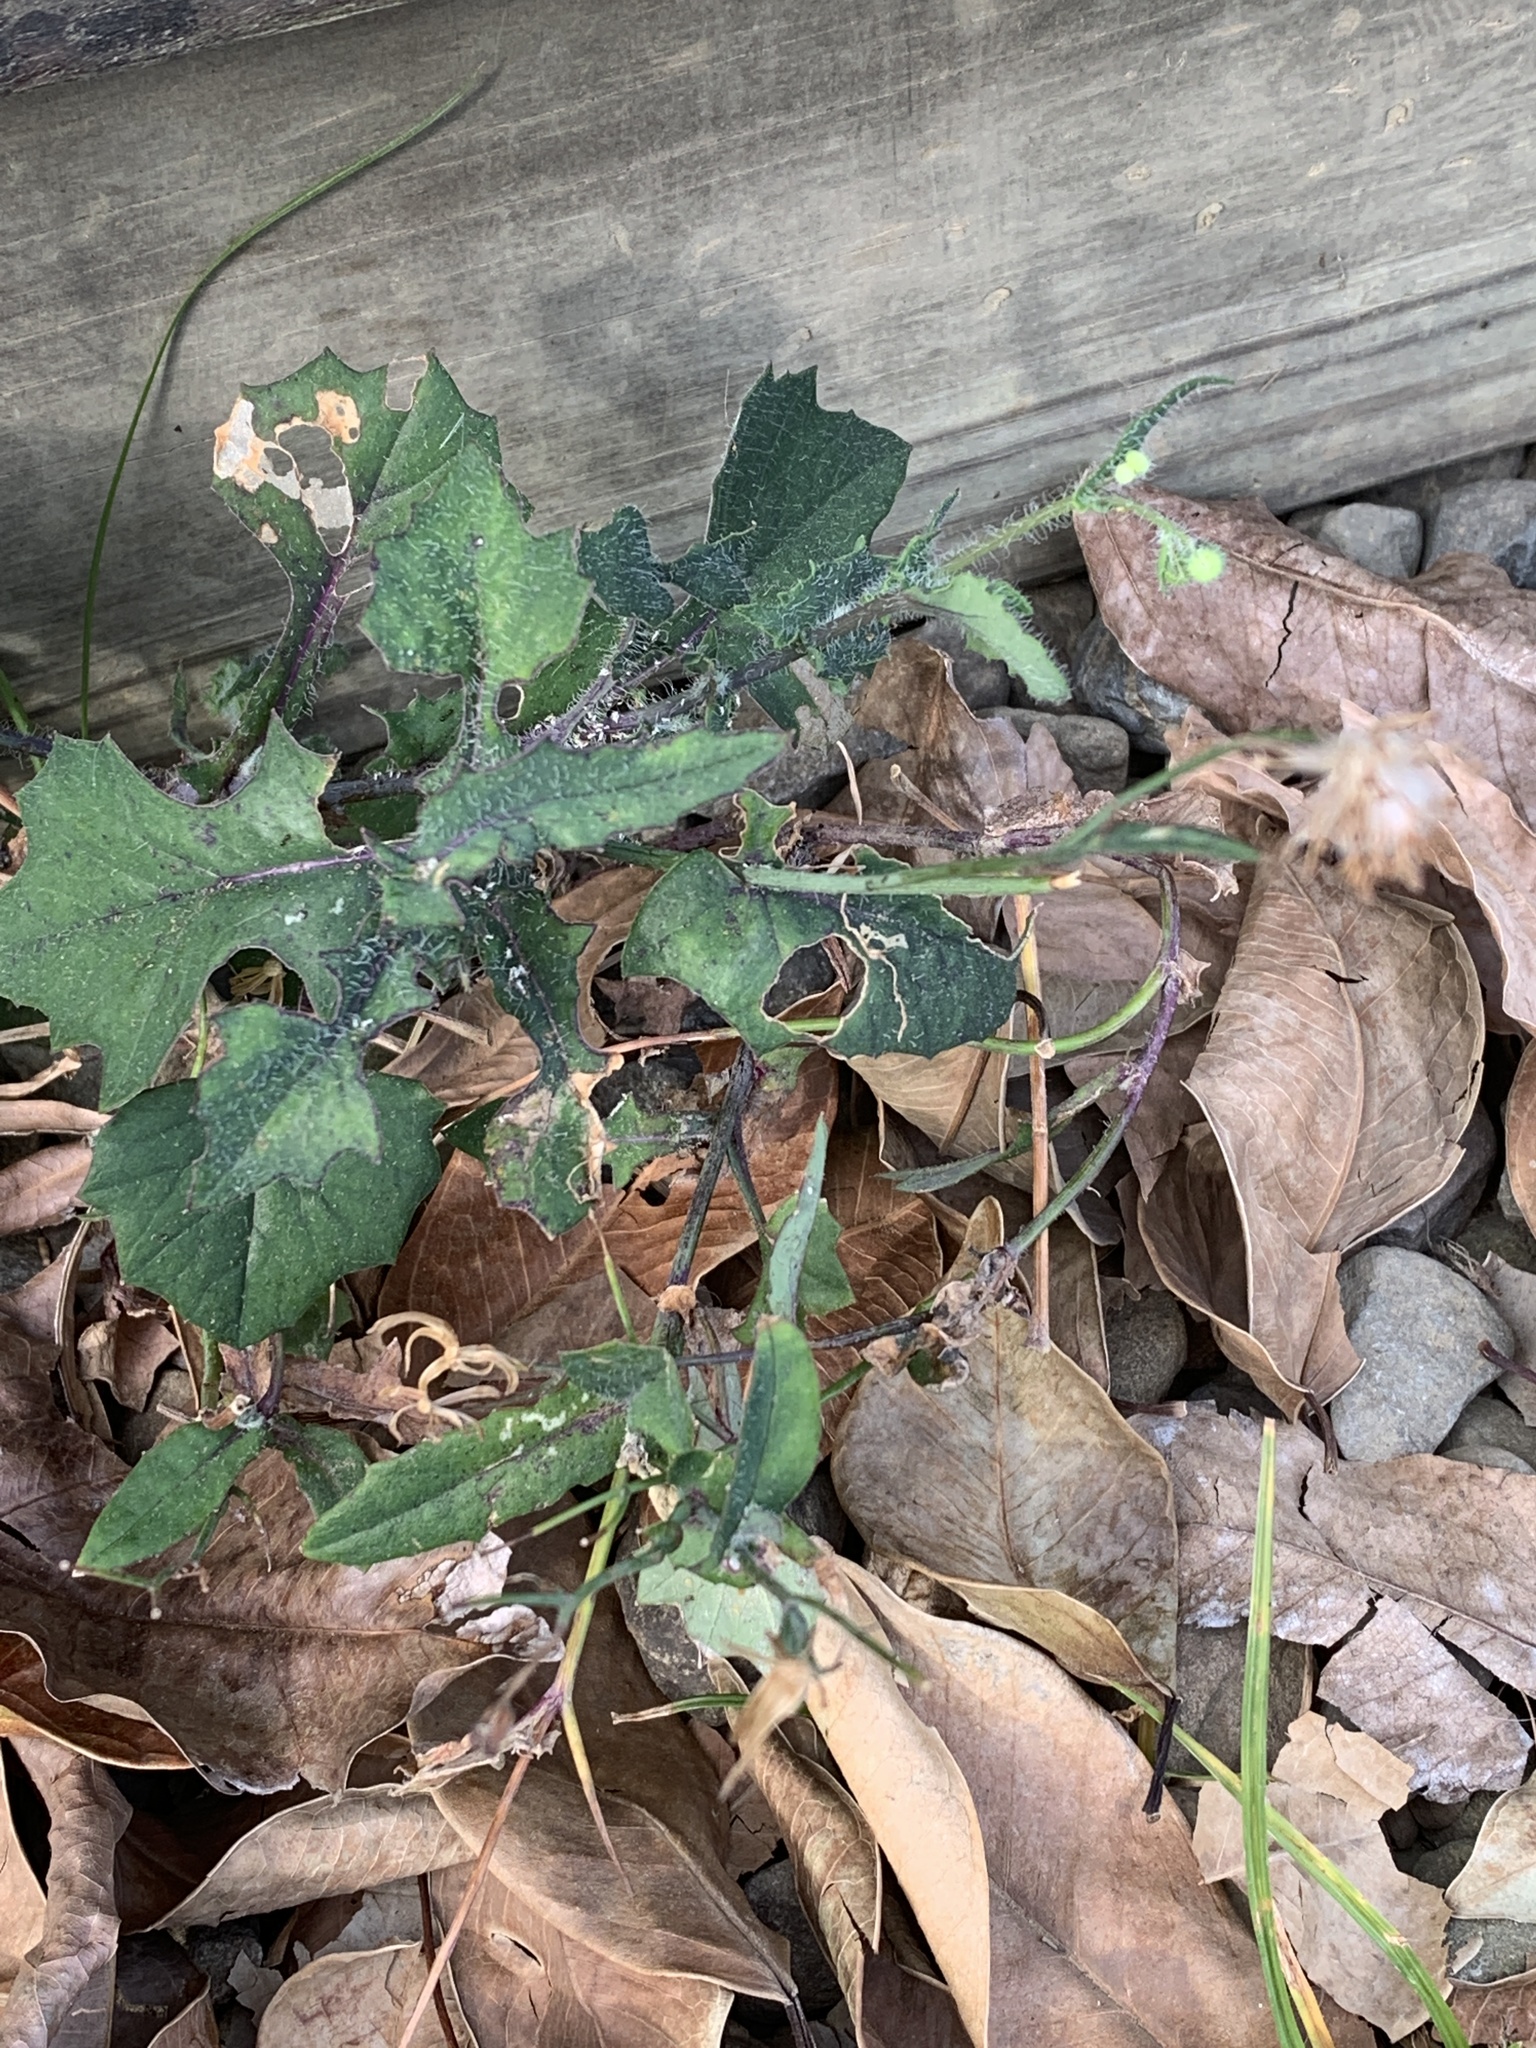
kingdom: Plantae
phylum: Tracheophyta
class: Magnoliopsida
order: Asterales
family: Asteraceae
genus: Emilia
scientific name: Emilia javanica
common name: Tassel-flower
